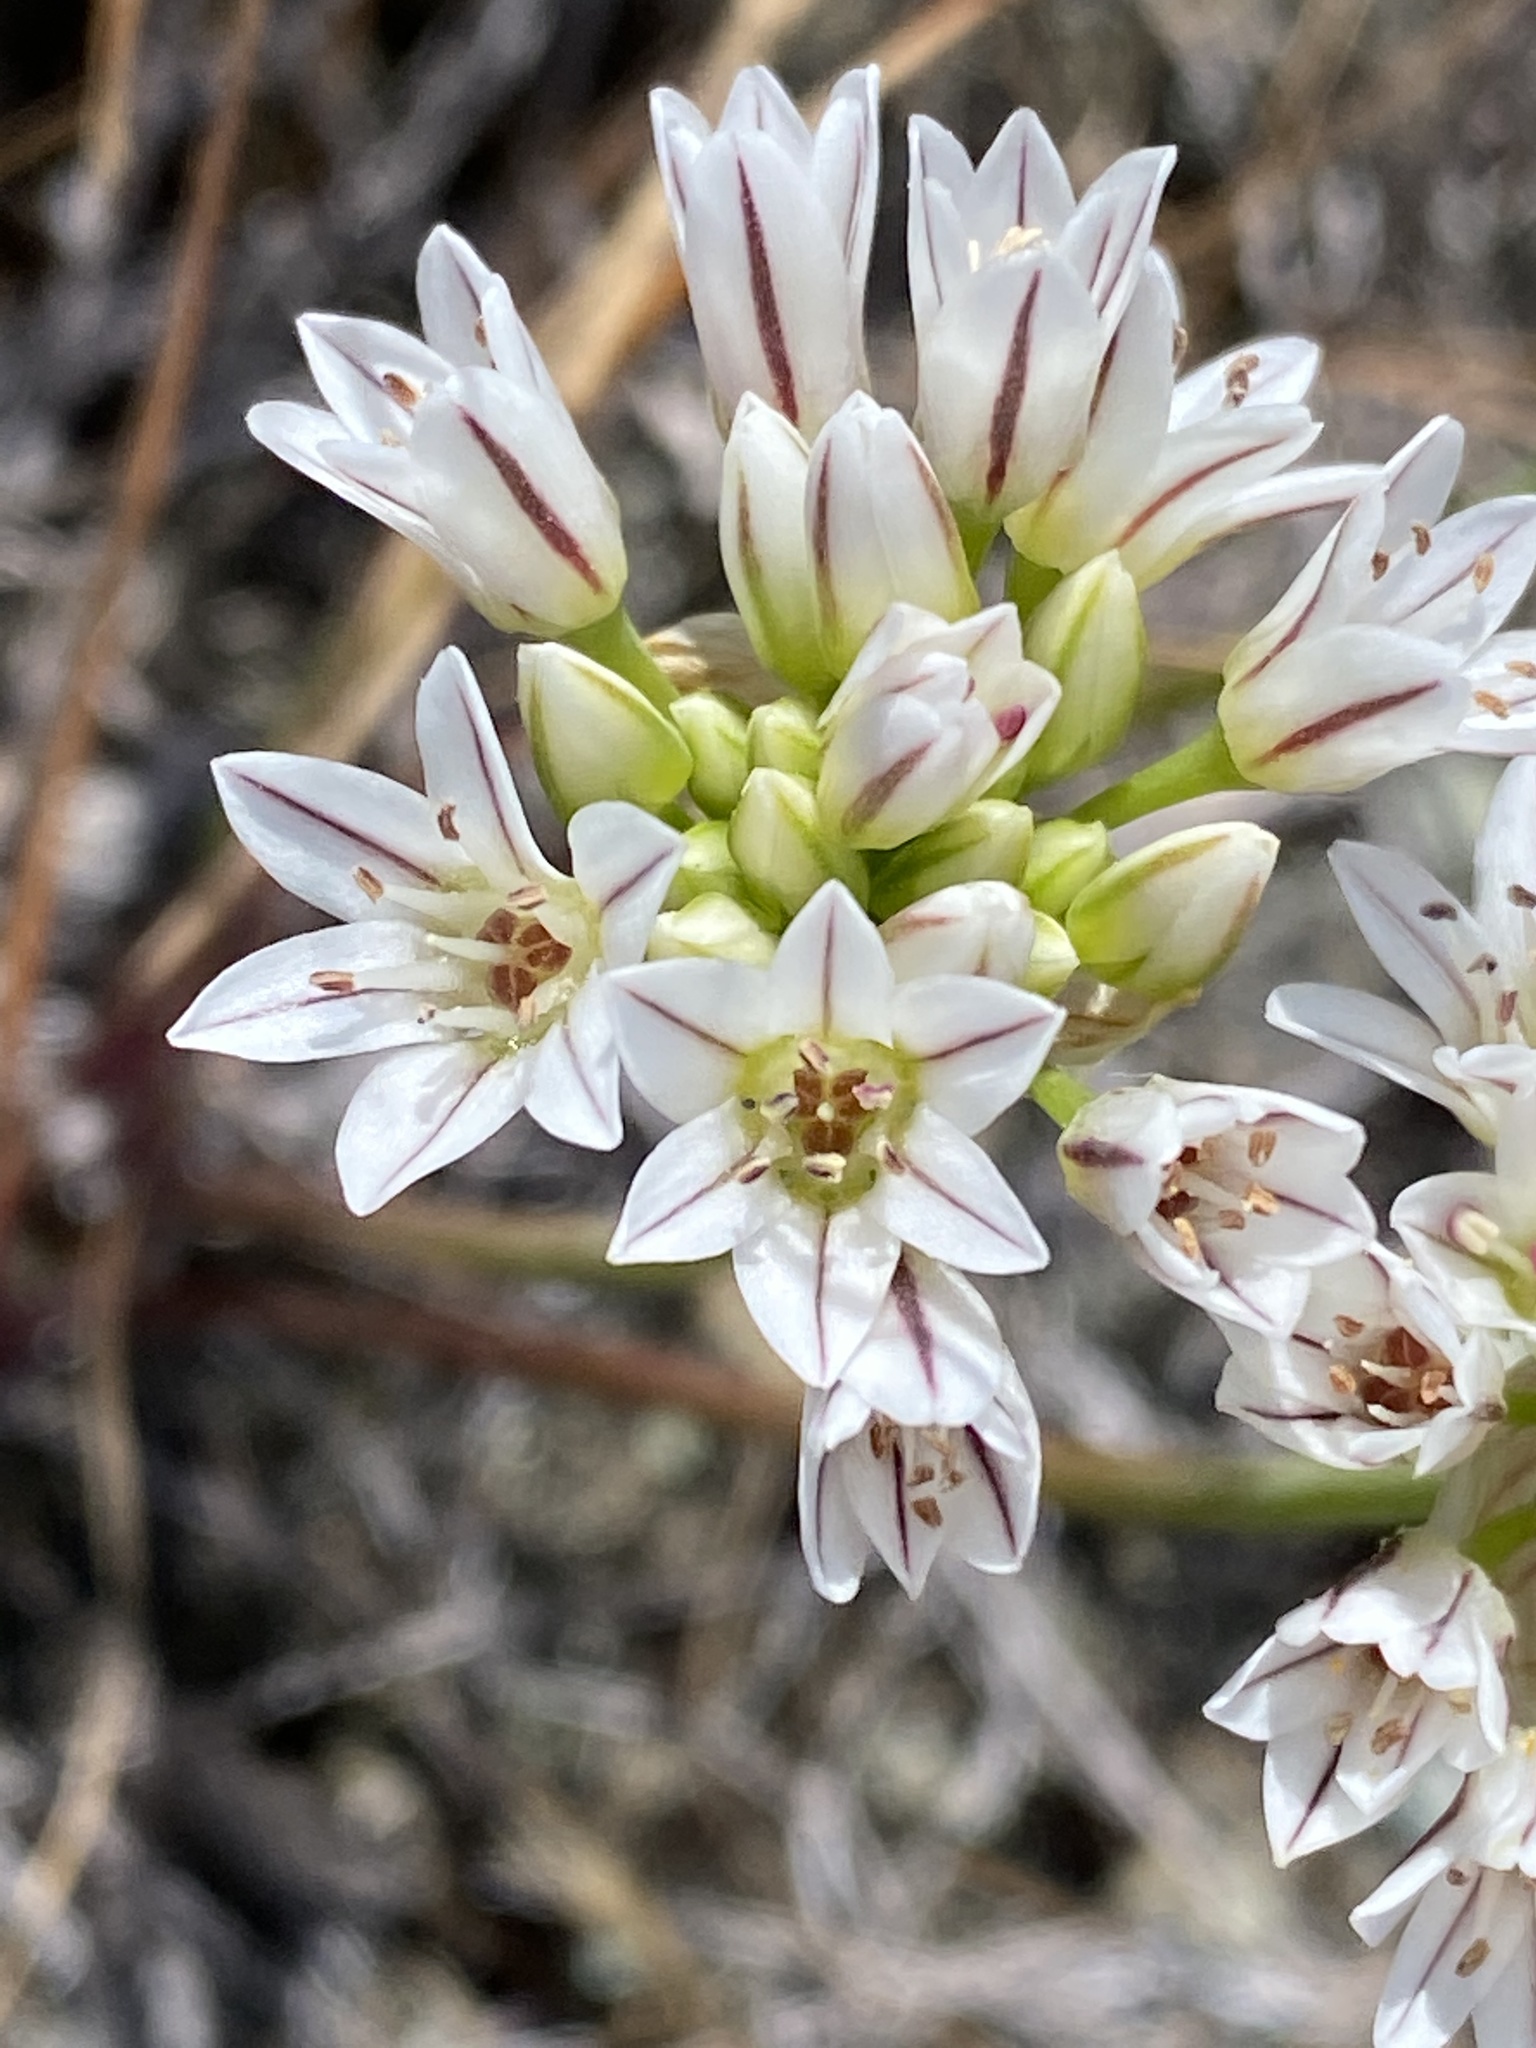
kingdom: Plantae
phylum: Tracheophyta
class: Liliopsida
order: Asparagales
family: Amaryllidaceae
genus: Allium
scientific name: Allium lacunosum
